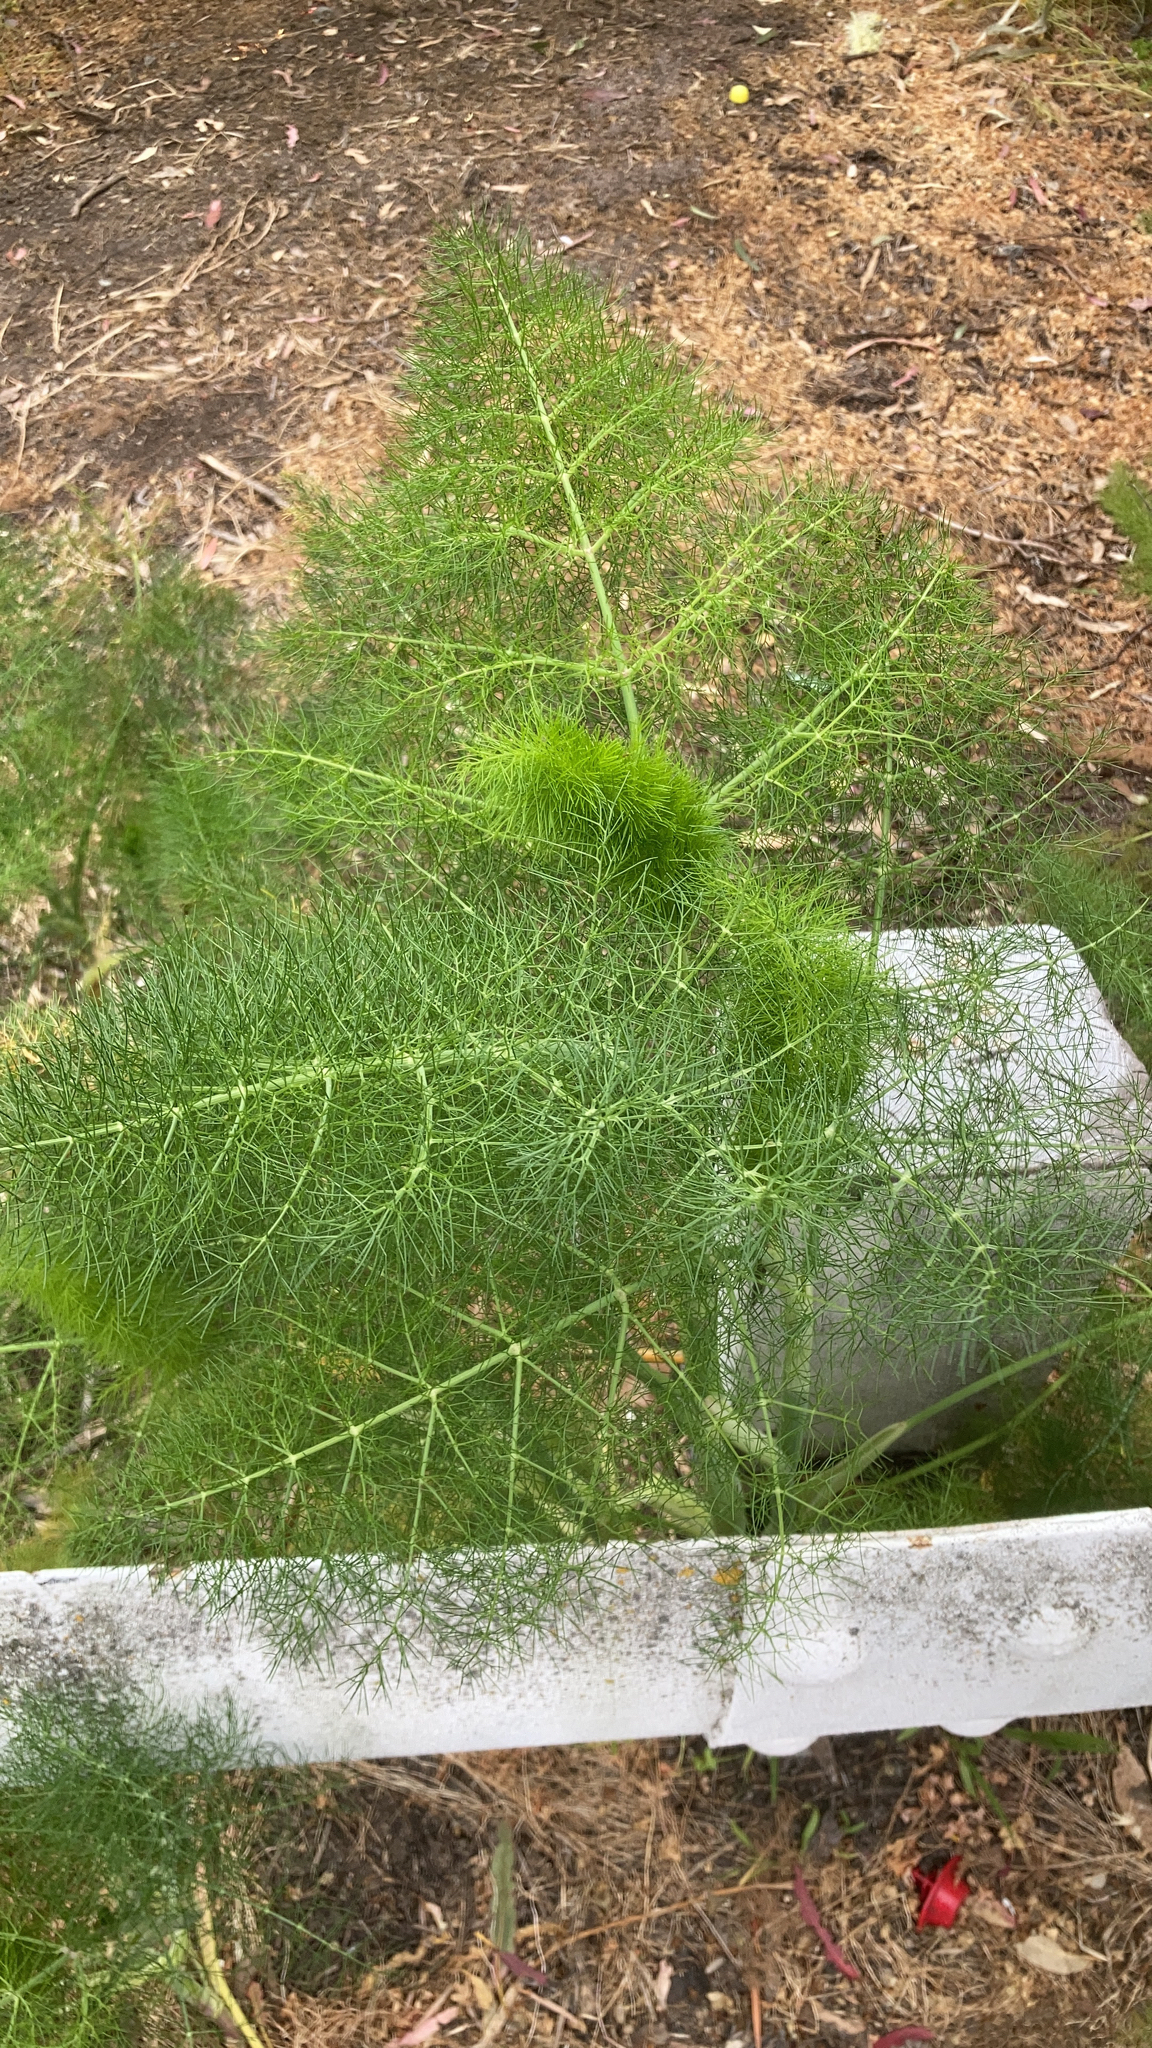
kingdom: Plantae
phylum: Tracheophyta
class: Magnoliopsida
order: Apiales
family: Apiaceae
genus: Foeniculum
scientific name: Foeniculum vulgare
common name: Fennel
